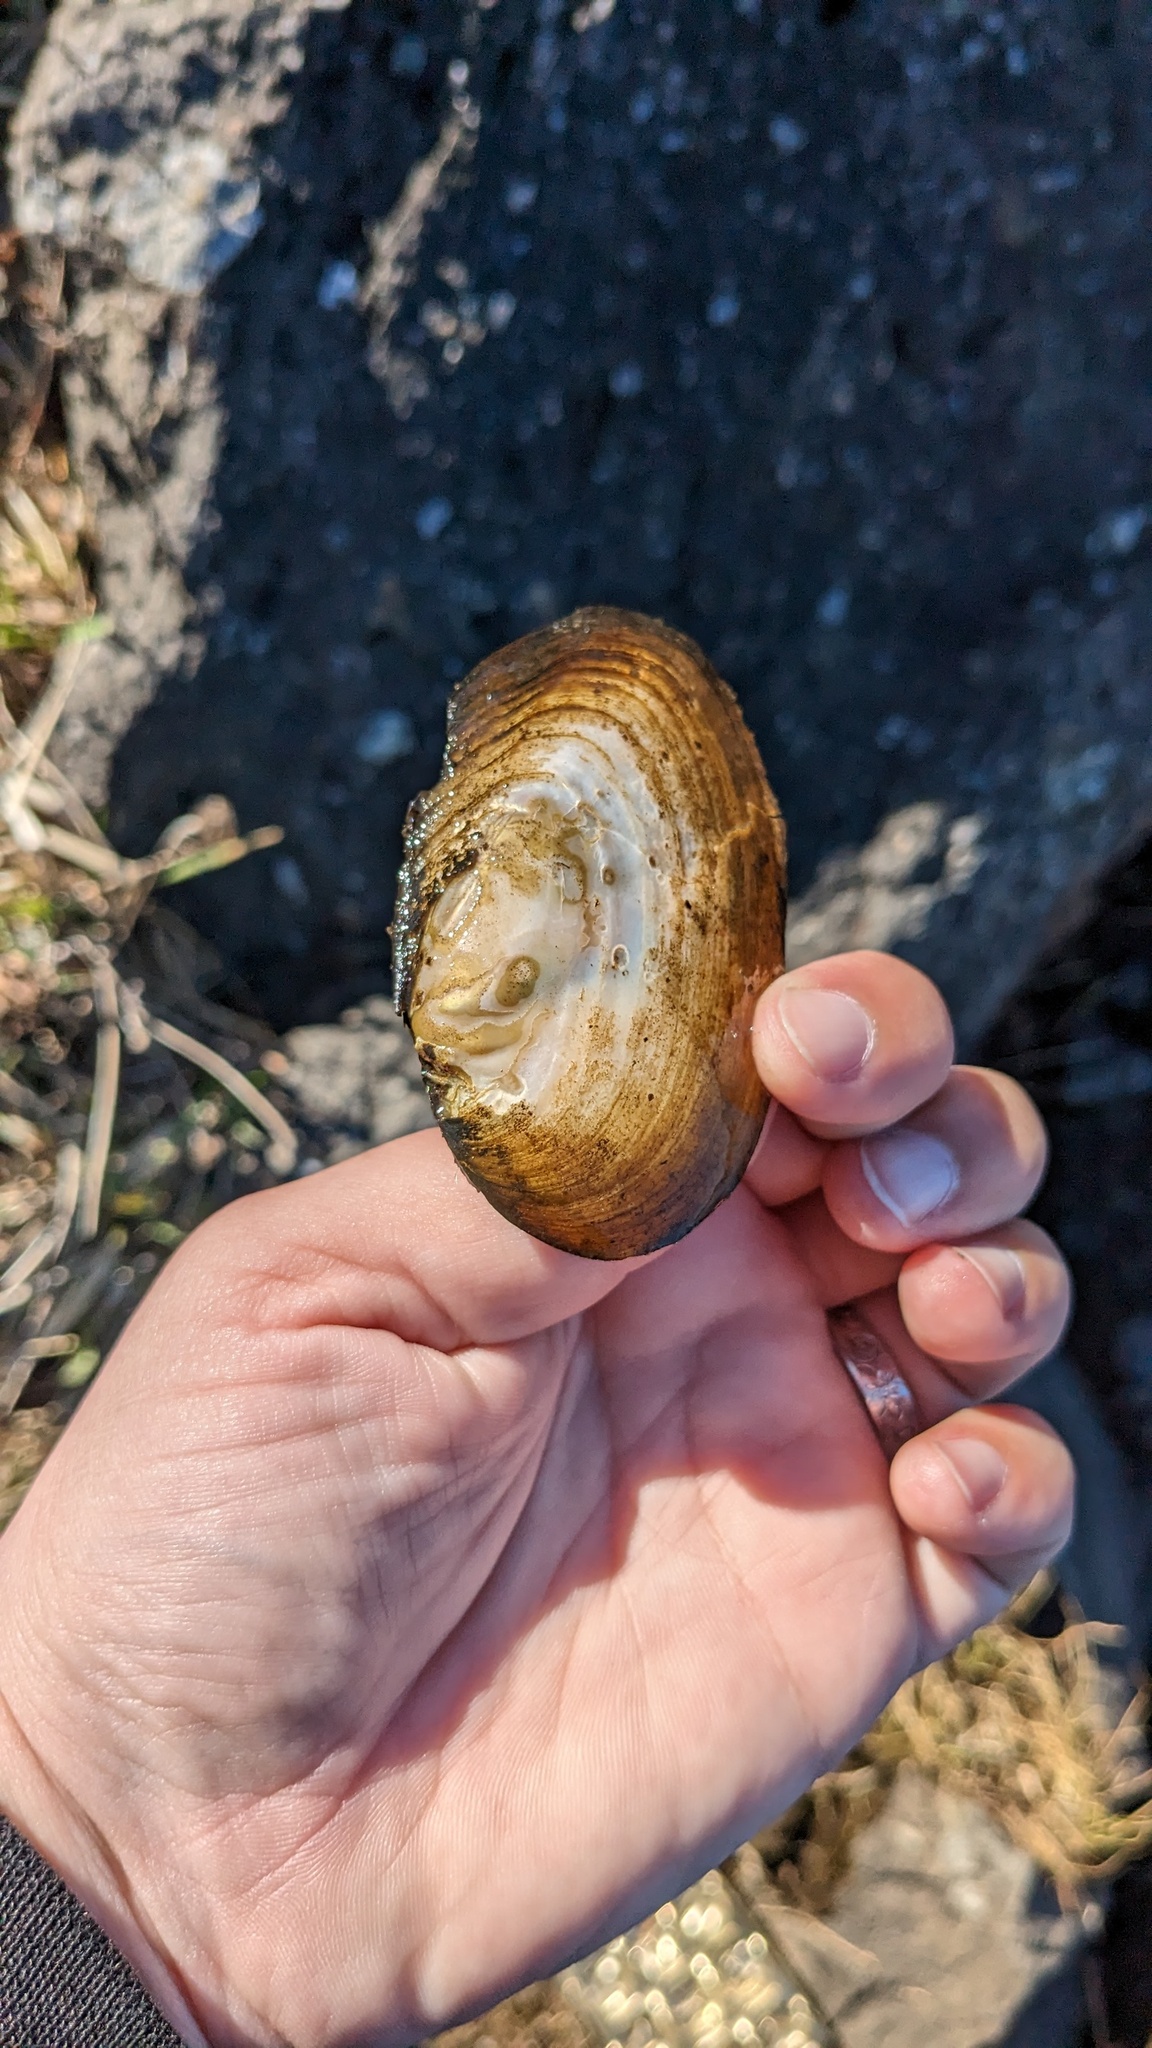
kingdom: Animalia
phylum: Mollusca
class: Bivalvia
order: Unionida
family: Unionidae
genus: Elliptio
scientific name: Elliptio complanata
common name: Eastern elliptio
